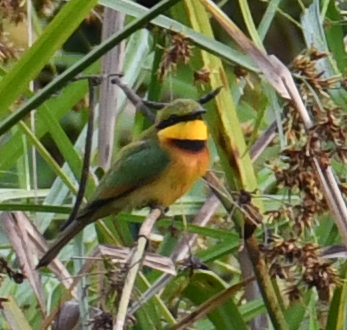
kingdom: Animalia
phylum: Chordata
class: Aves
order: Coraciiformes
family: Meropidae
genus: Merops
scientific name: Merops pusillus
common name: Little bee-eater
